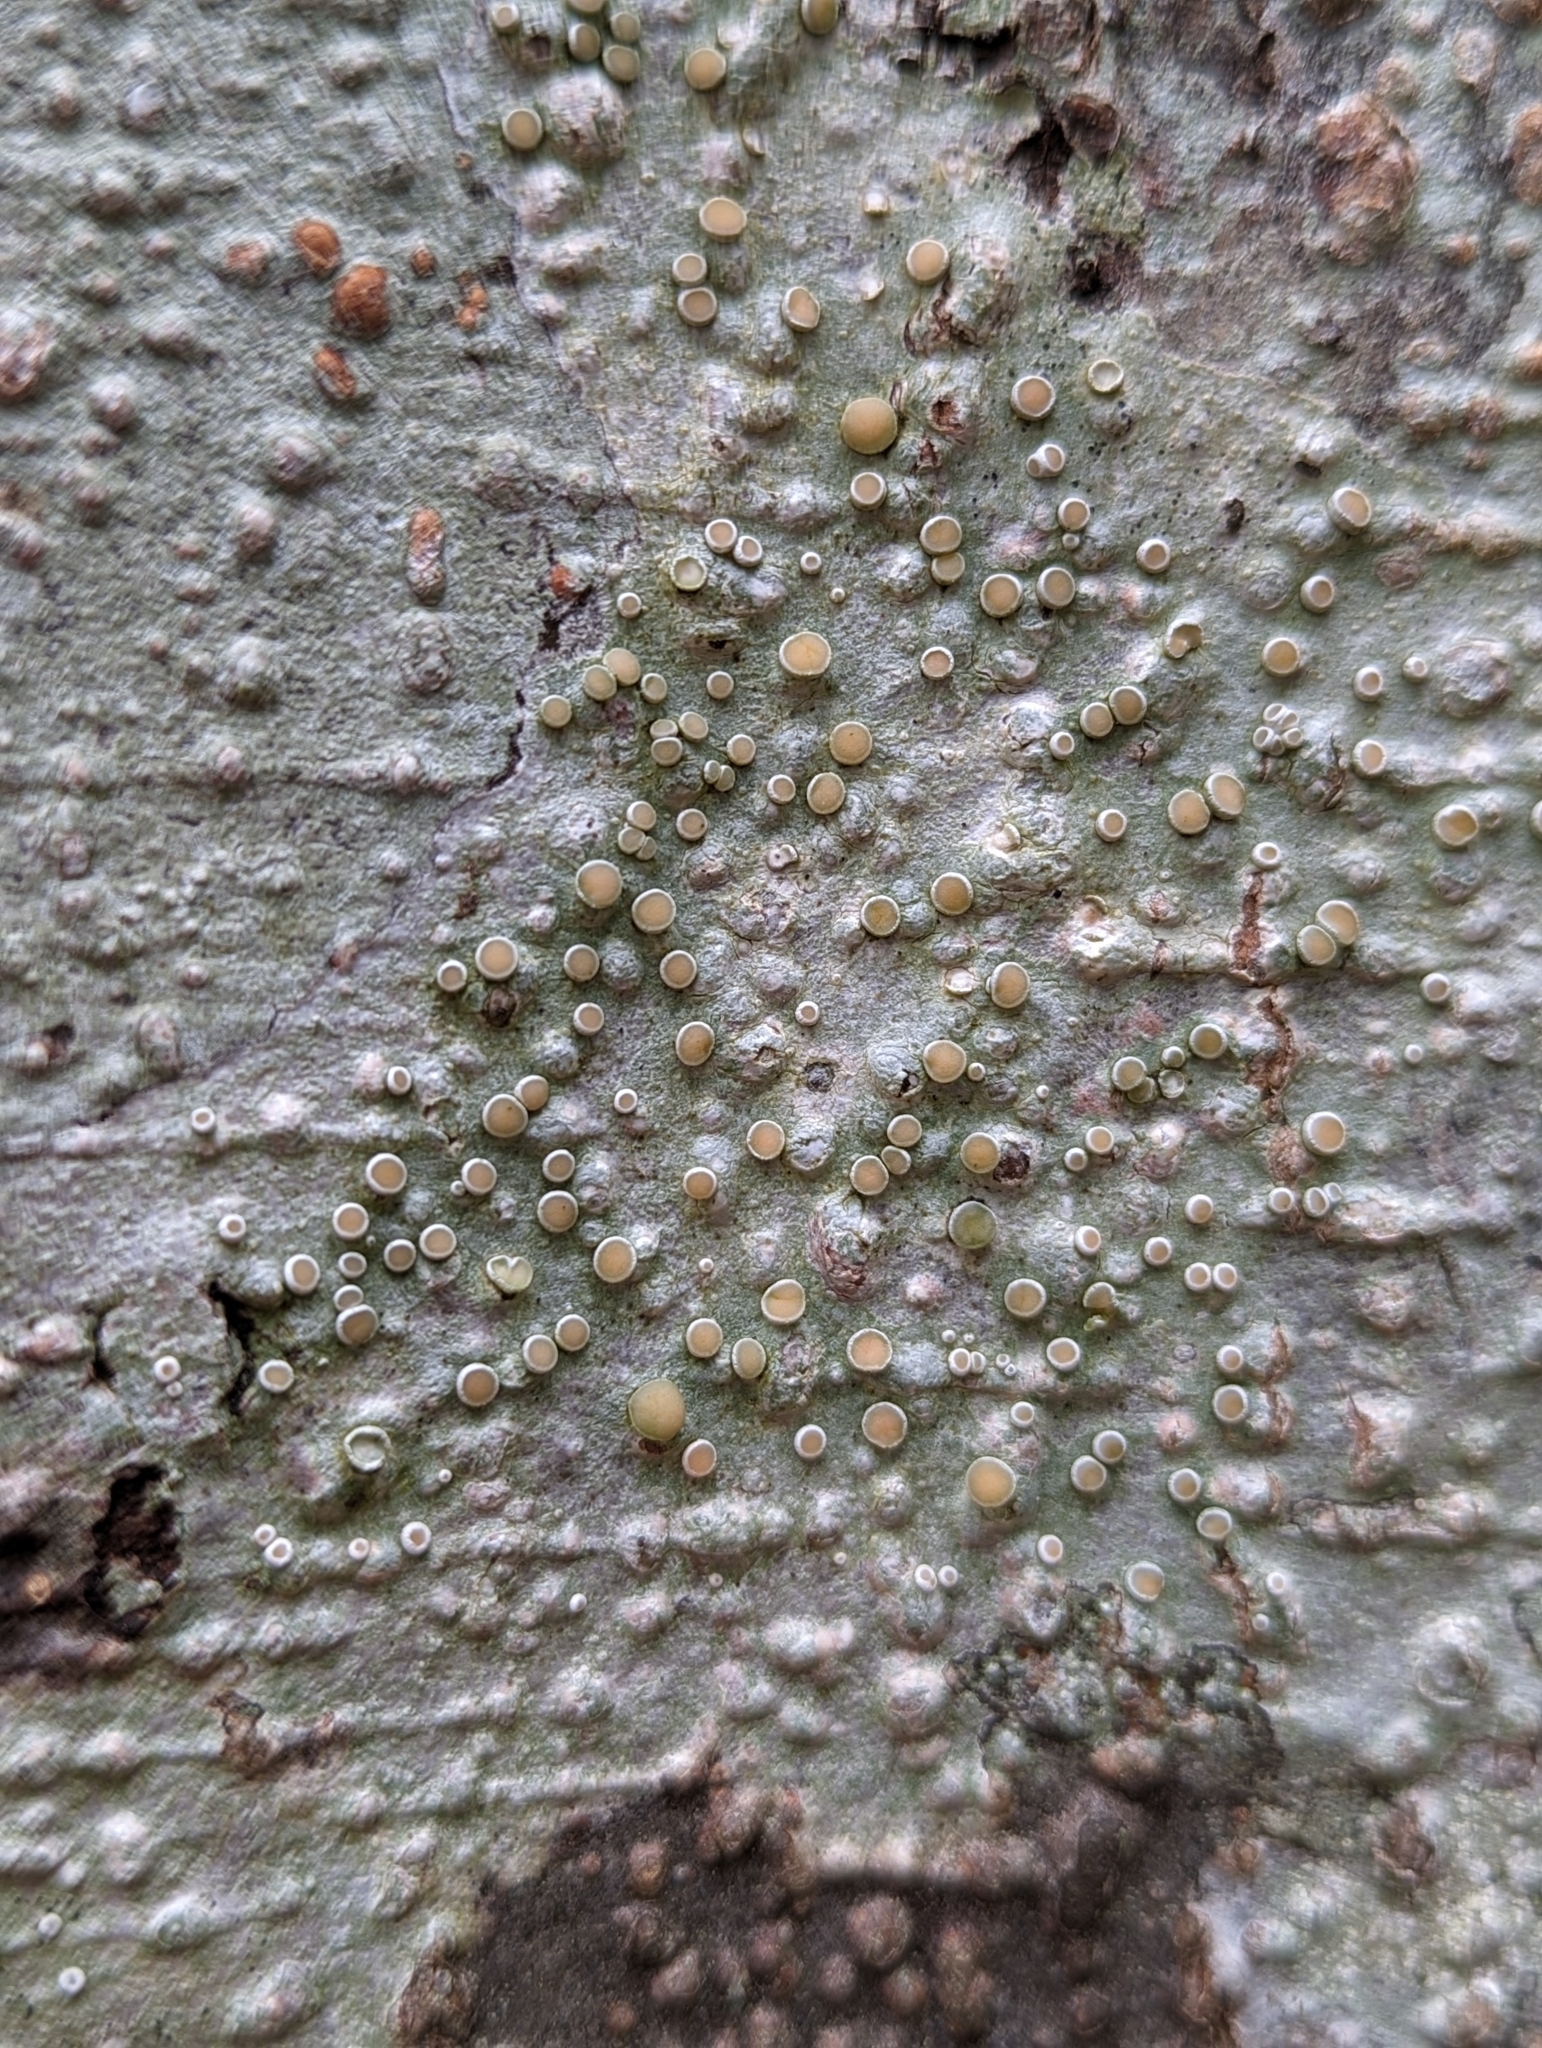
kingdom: Fungi
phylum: Ascomycota
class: Lecanoromycetes
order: Pertusariales
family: Ochrolechiaceae
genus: Ochrolechia
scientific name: Ochrolechia laevigata
